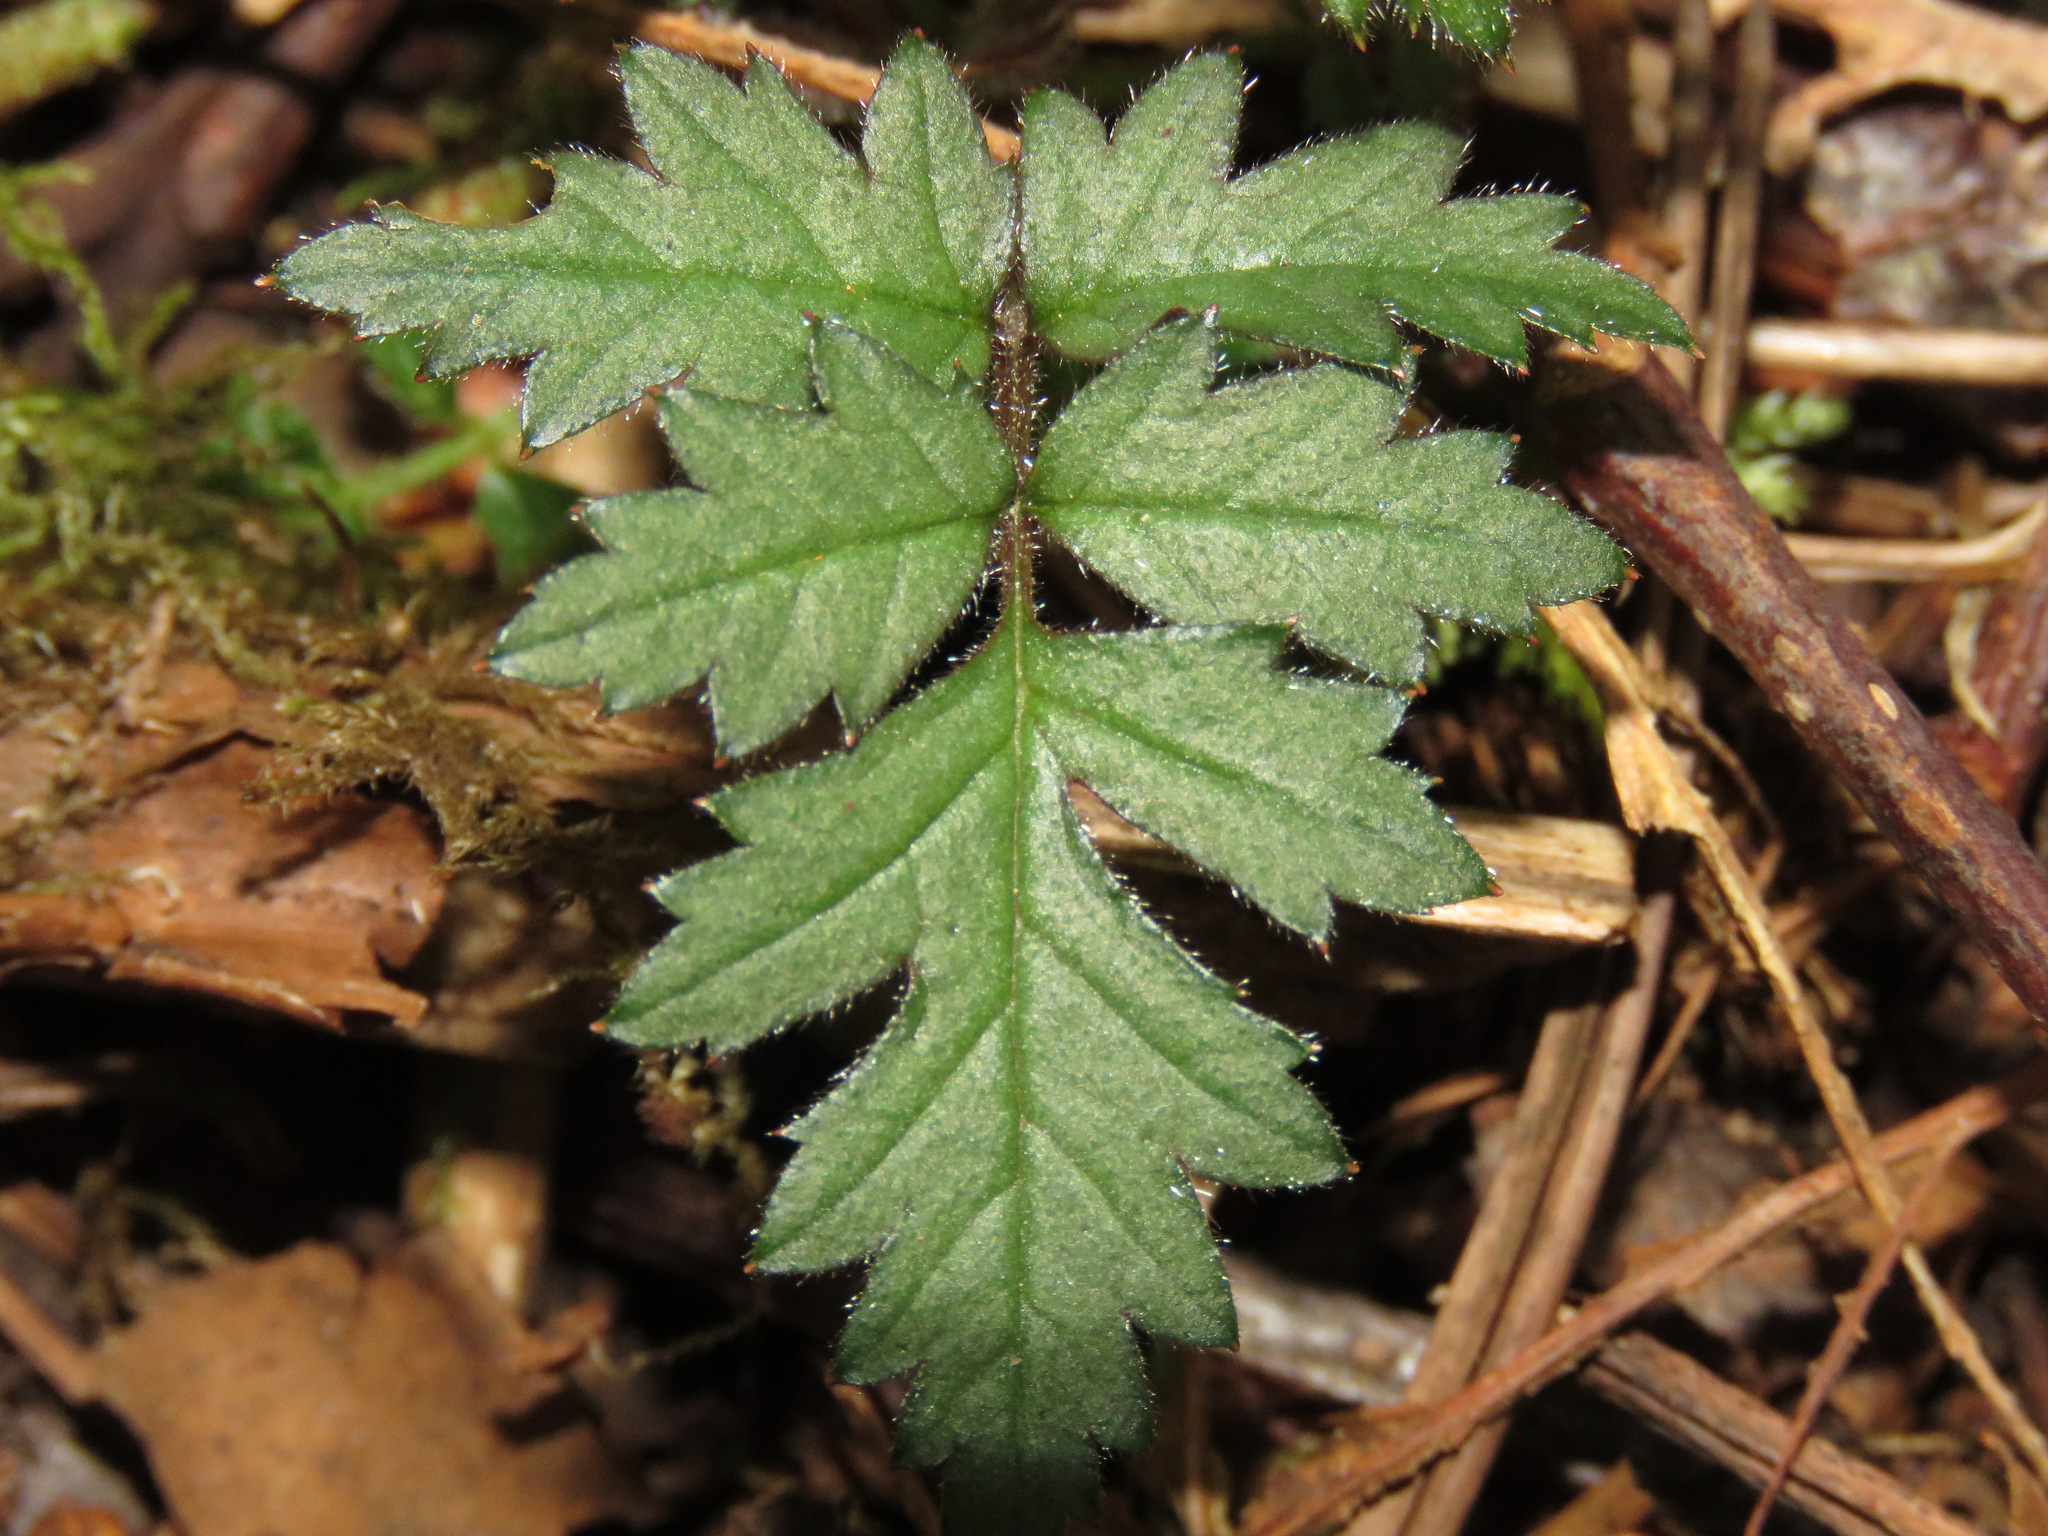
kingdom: Plantae
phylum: Tracheophyta
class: Magnoliopsida
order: Rosales
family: Rosaceae
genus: Rubus
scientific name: Rubus laciniatus
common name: Evergreen blackberry
